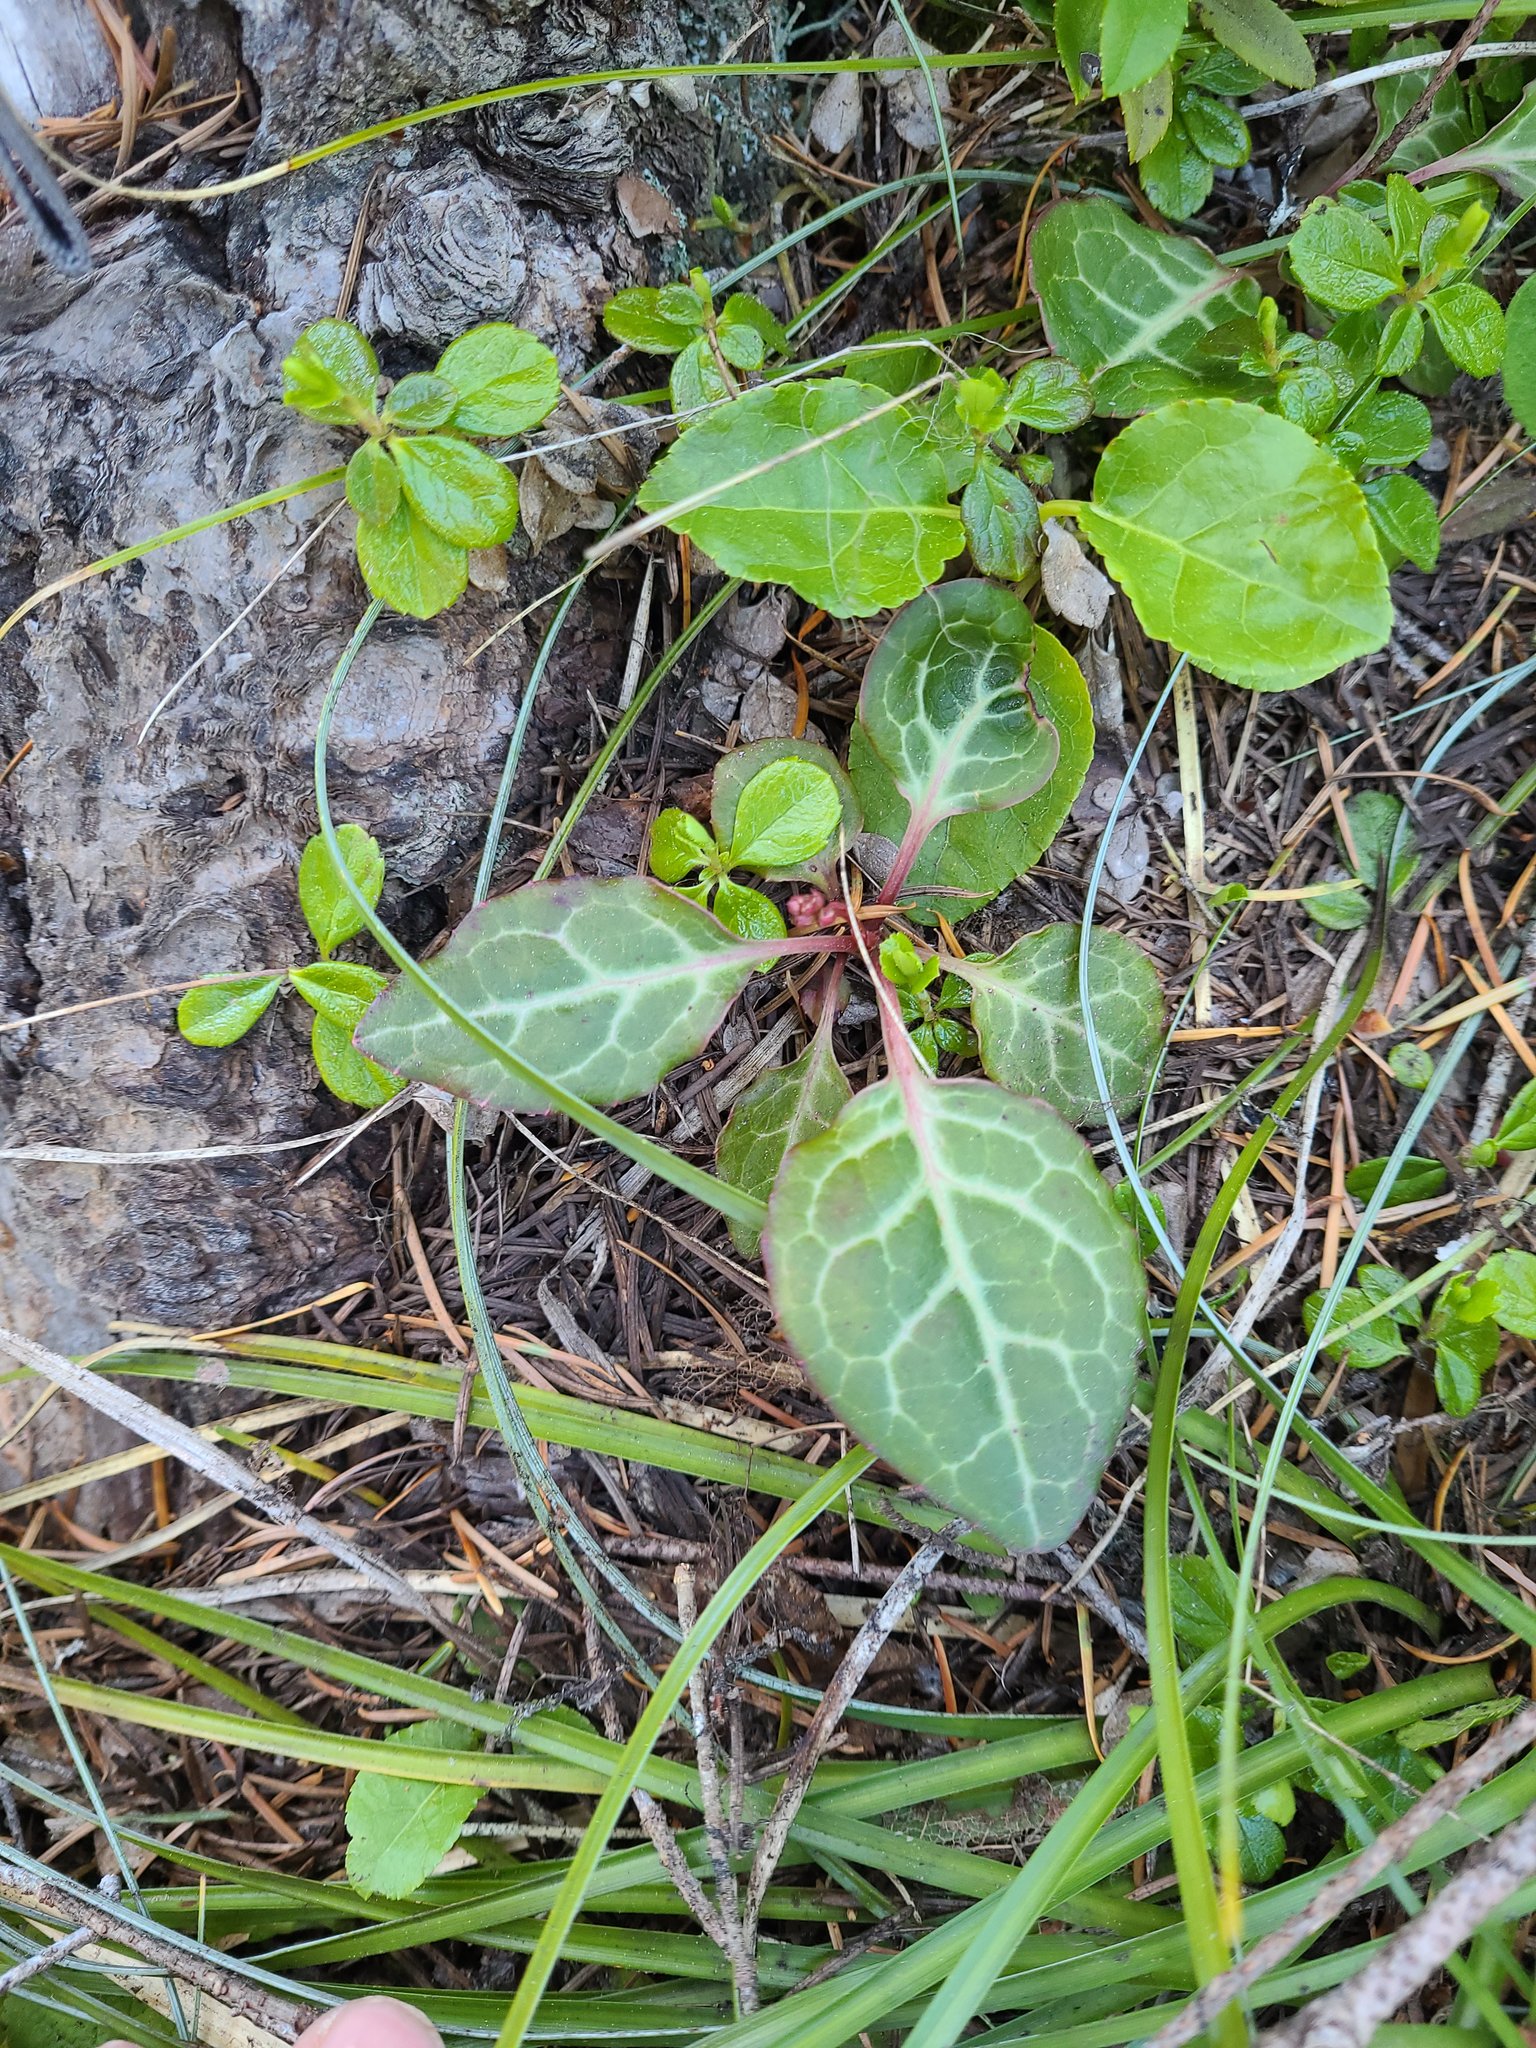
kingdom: Plantae
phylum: Tracheophyta
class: Magnoliopsida
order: Ericales
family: Ericaceae
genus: Pyrola
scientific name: Pyrola picta
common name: White-vein wintergreen
